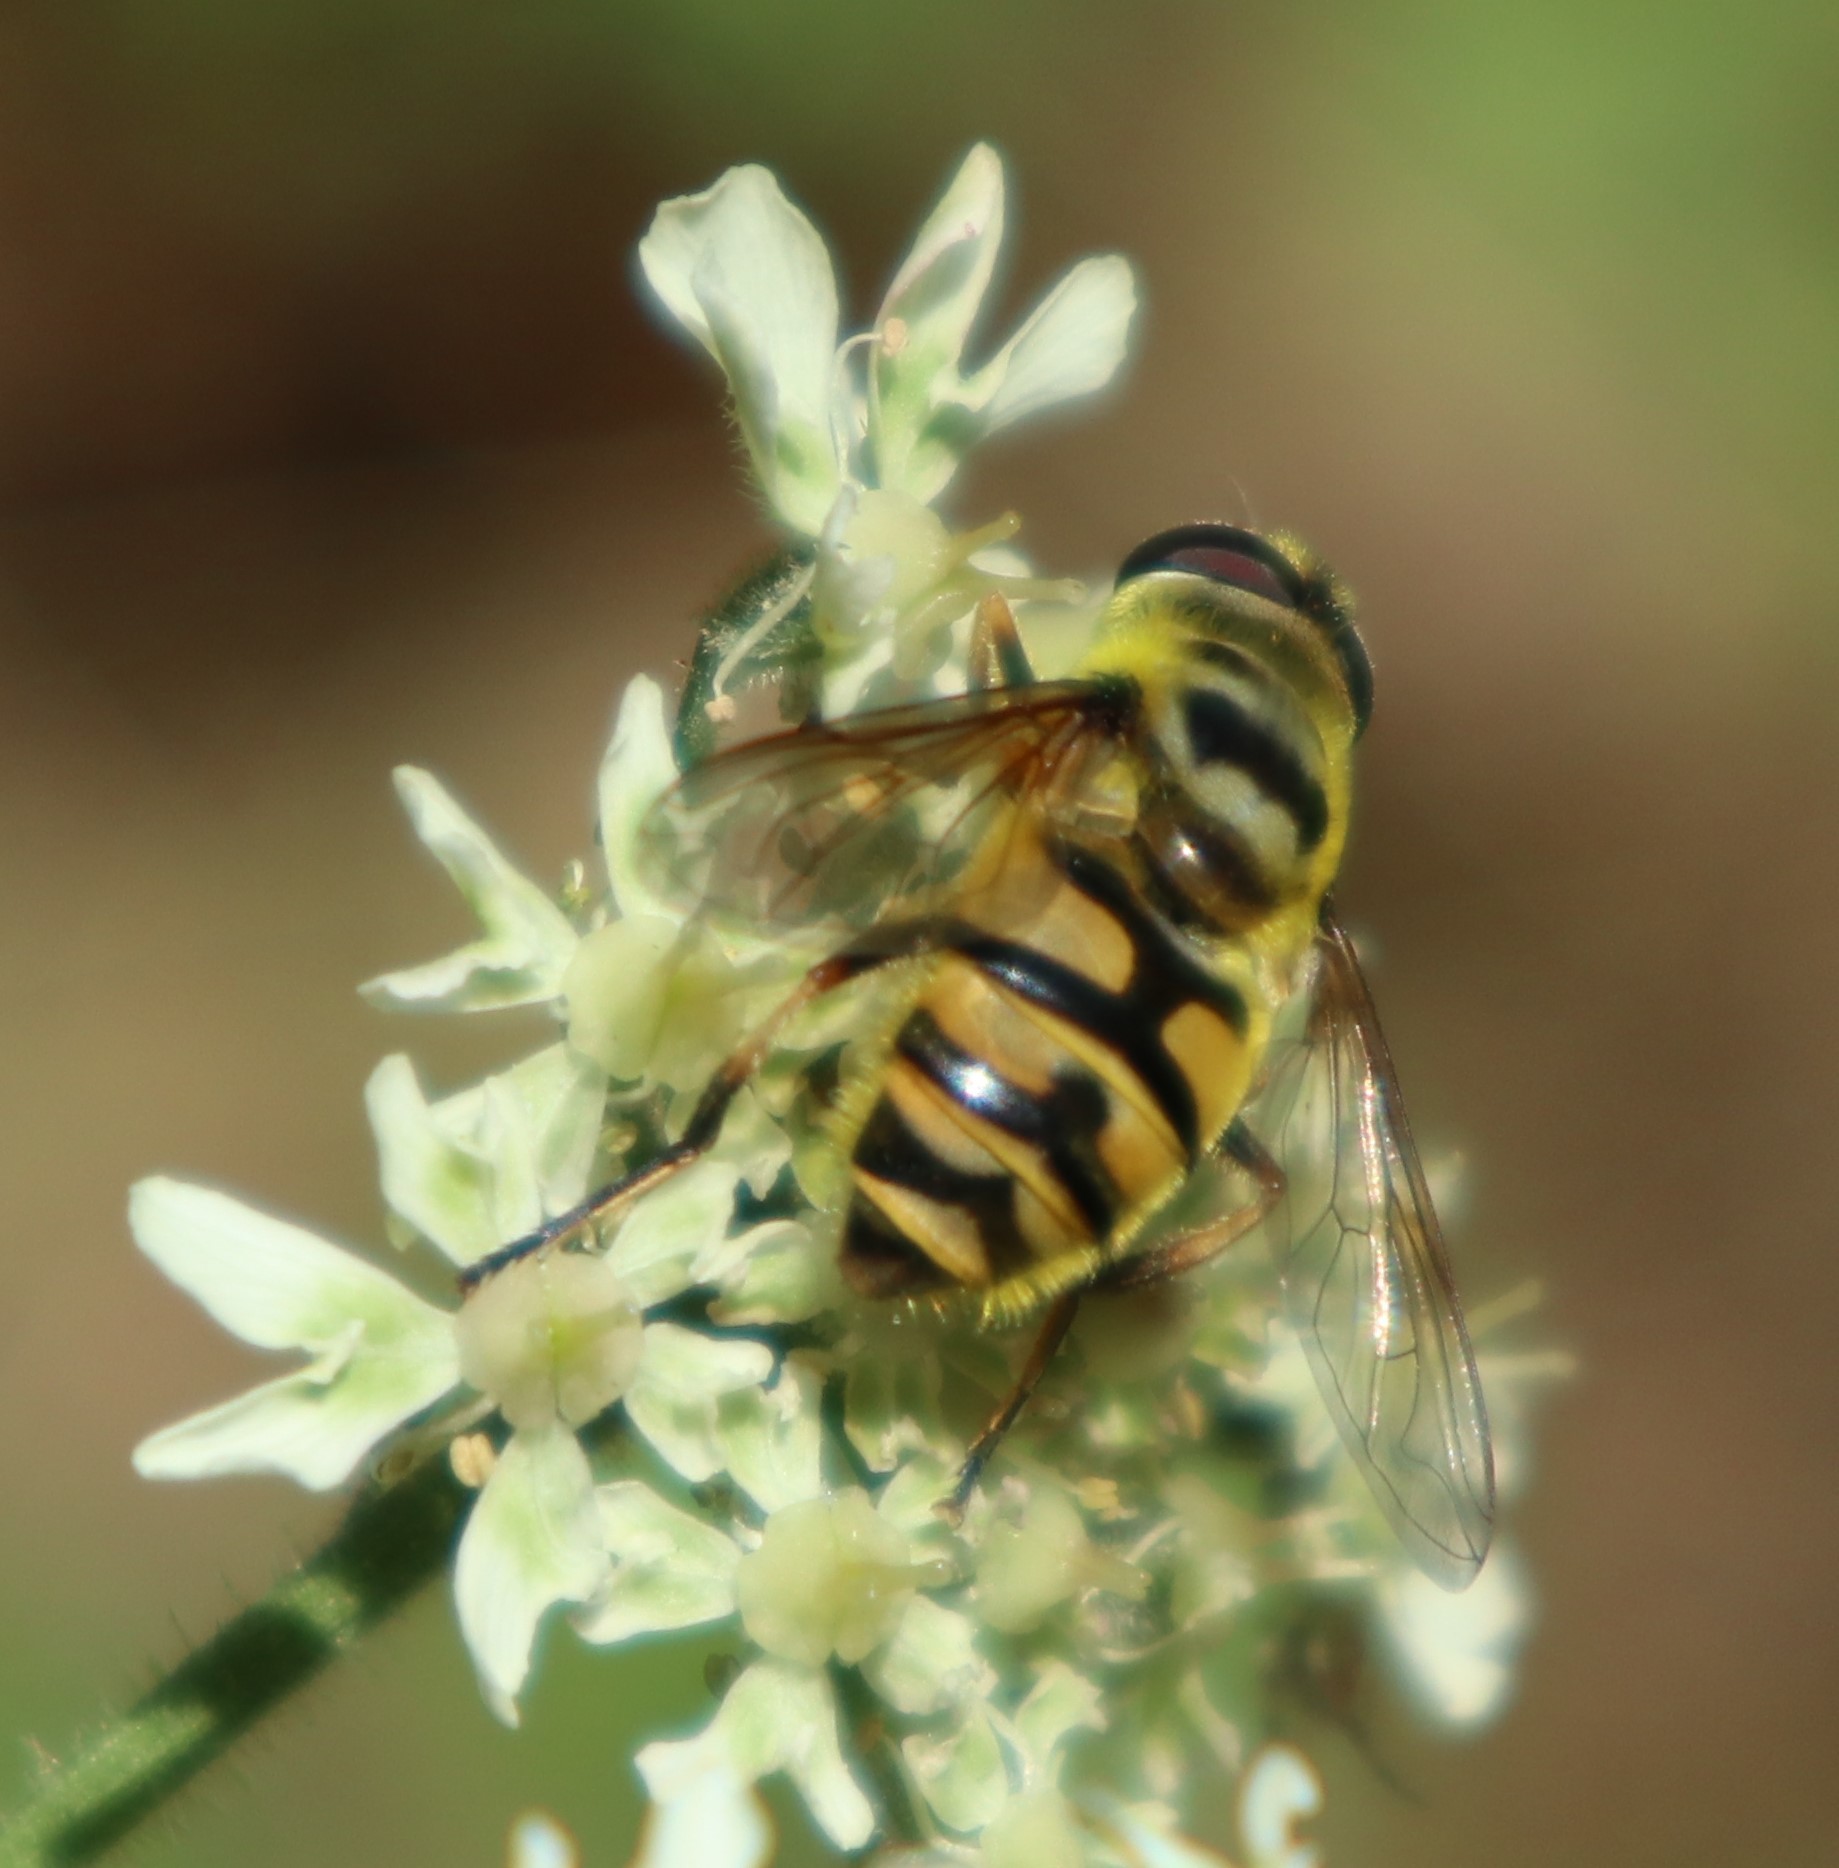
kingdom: Animalia
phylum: Arthropoda
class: Insecta
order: Diptera
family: Syrphidae
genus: Myathropa
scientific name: Myathropa florea
